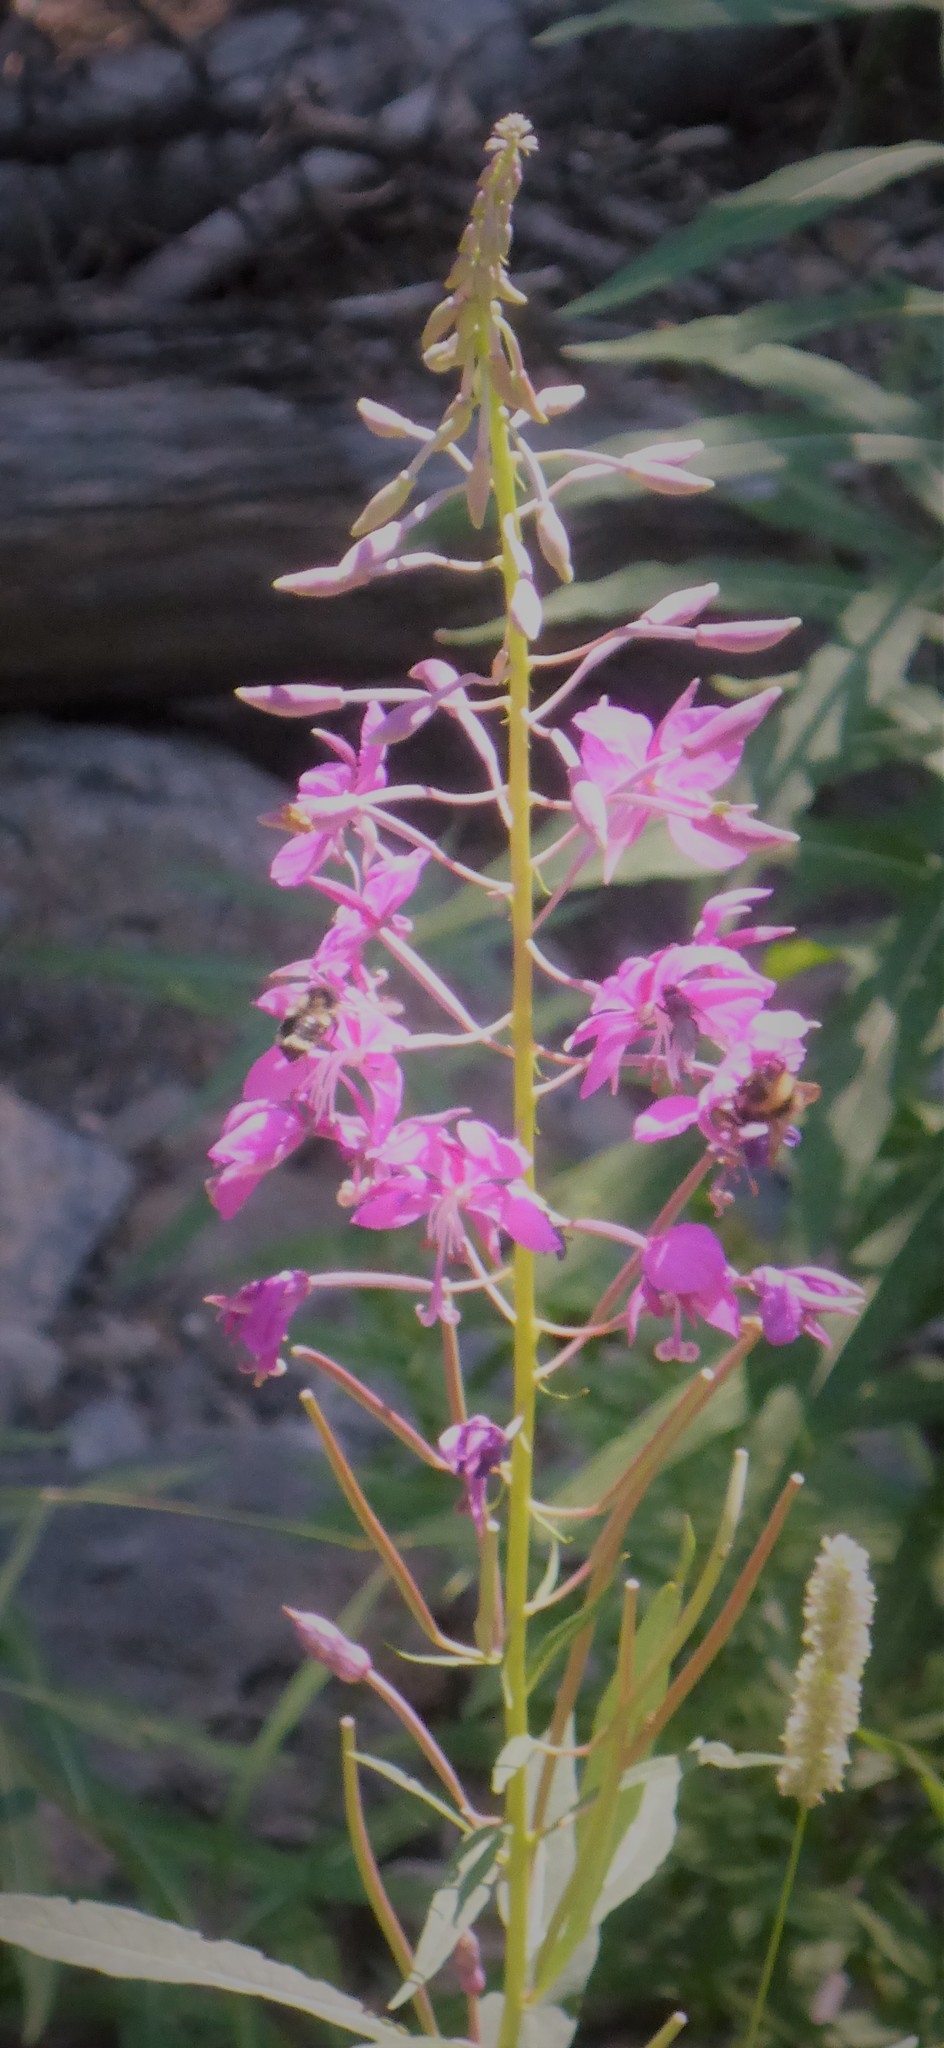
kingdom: Plantae
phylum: Tracheophyta
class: Magnoliopsida
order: Myrtales
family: Onagraceae
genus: Chamaenerion
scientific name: Chamaenerion angustifolium
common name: Fireweed
